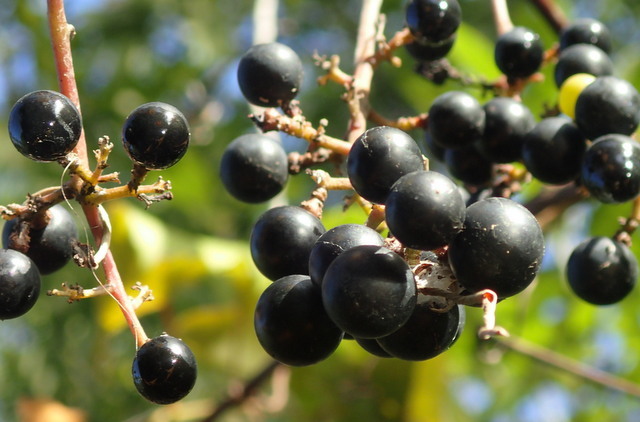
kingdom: Plantae
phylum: Tracheophyta
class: Magnoliopsida
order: Vitales
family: Vitaceae
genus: Vitis
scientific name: Vitis vulpina
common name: Frost grape
